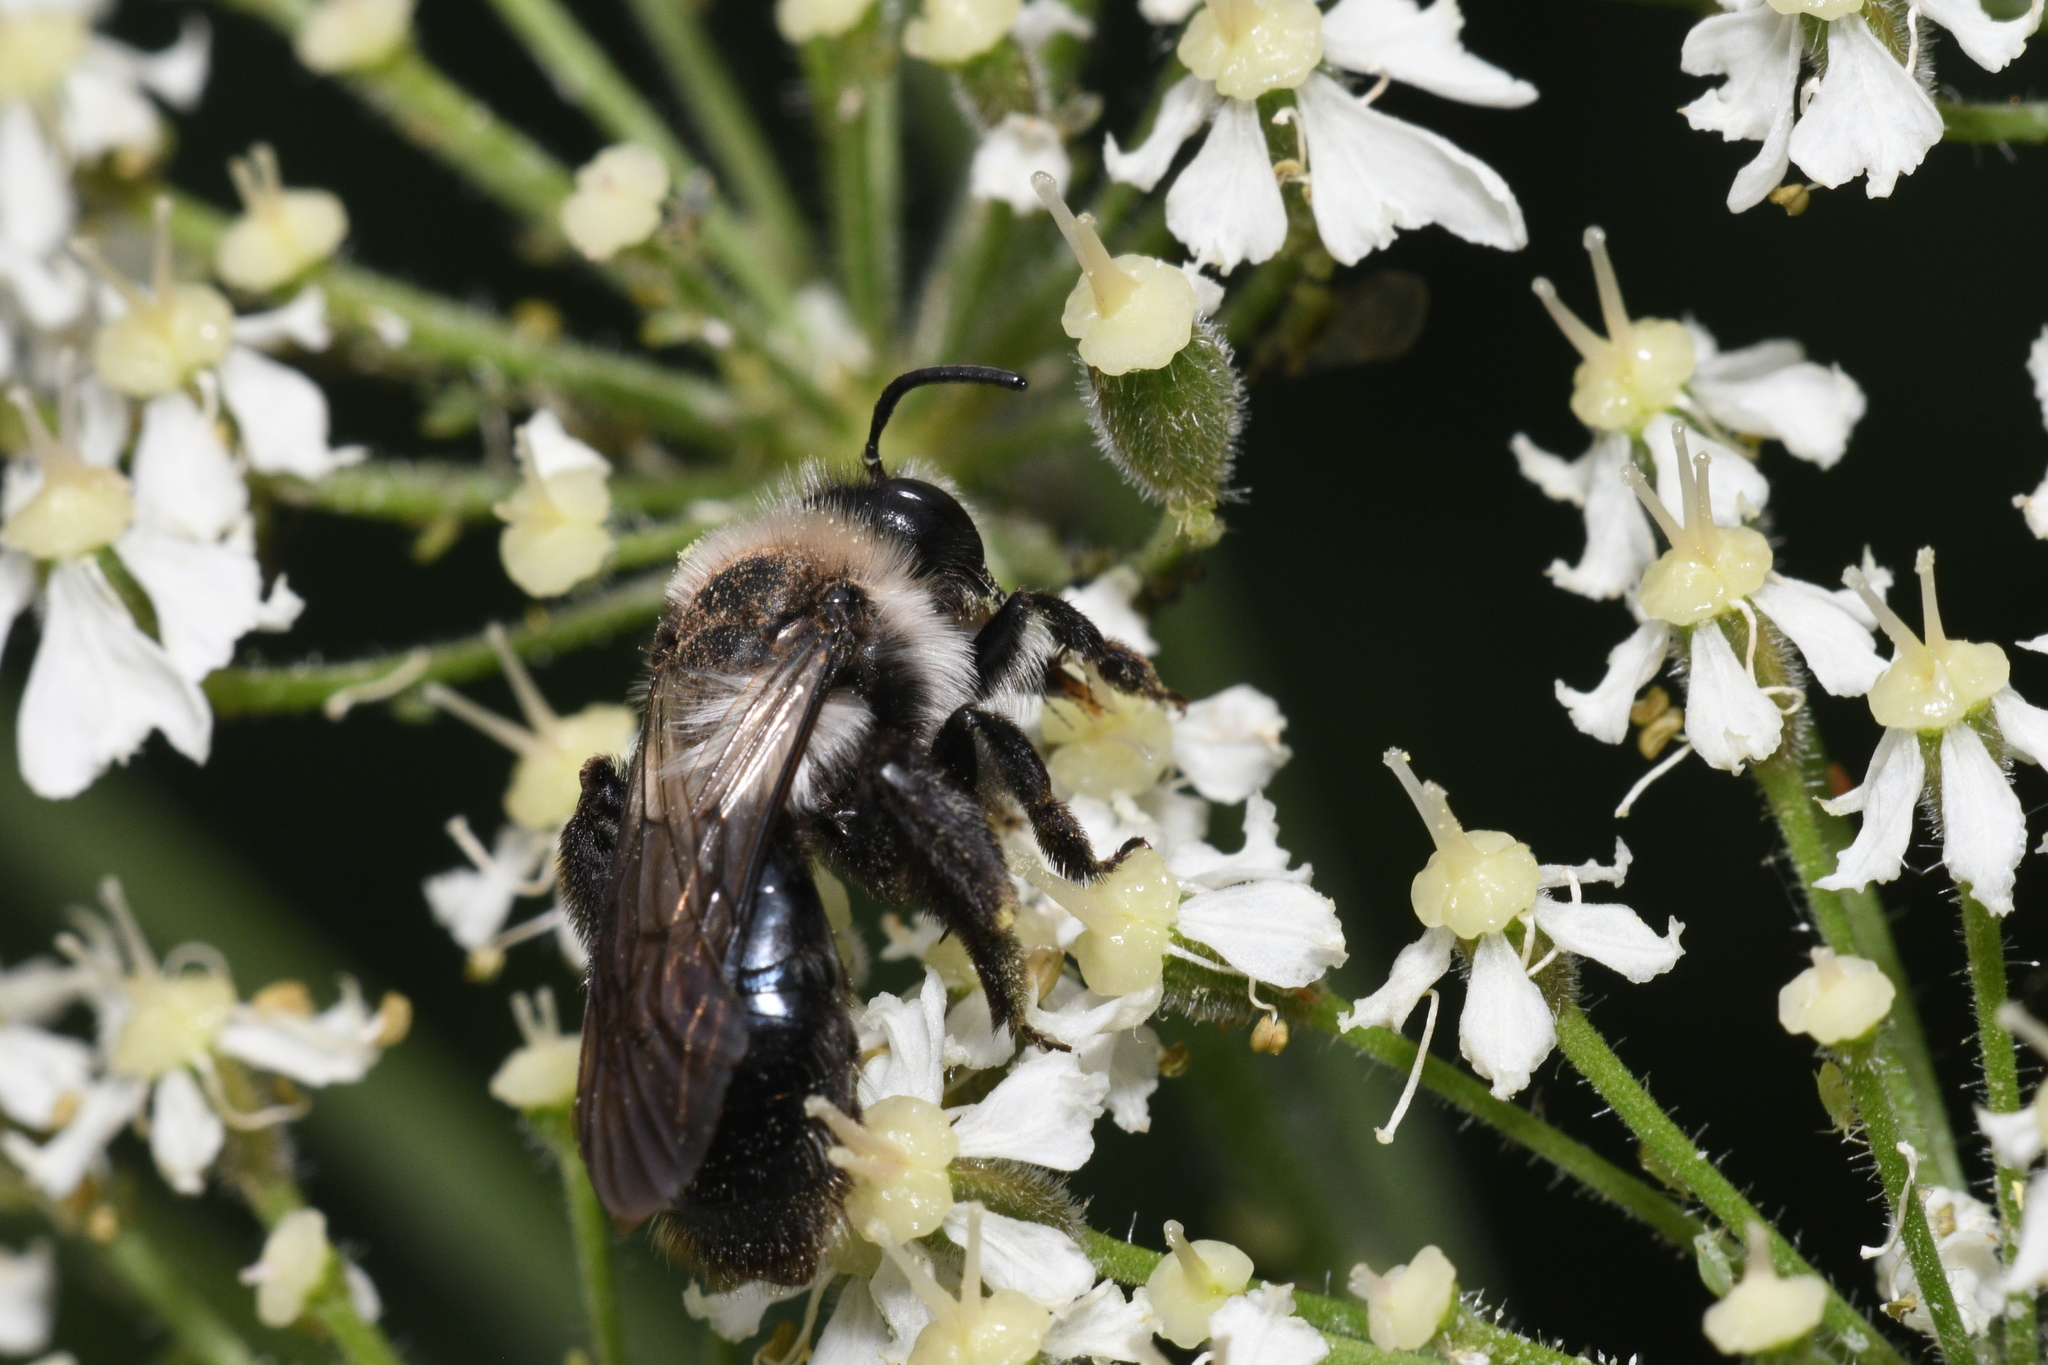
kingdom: Animalia
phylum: Arthropoda
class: Insecta
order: Hymenoptera
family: Andrenidae
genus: Andrena
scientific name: Andrena cineraria
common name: Ashy mining bee
